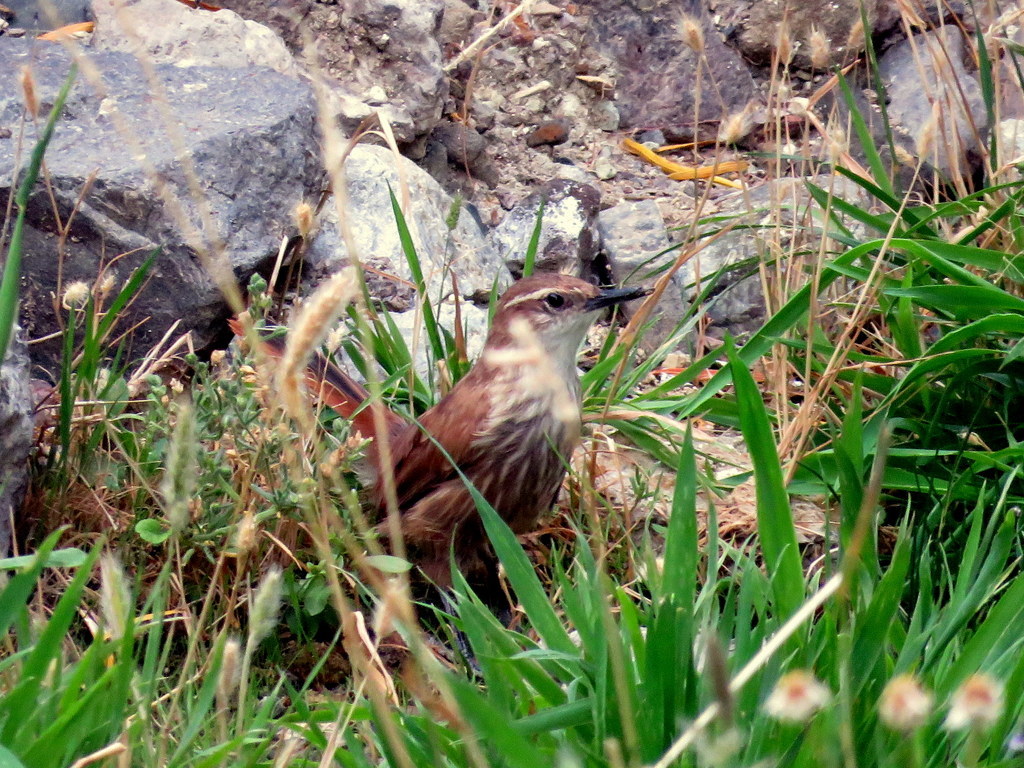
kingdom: Animalia
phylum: Chordata
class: Aves
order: Passeriformes
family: Furnariidae
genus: Upucerthia
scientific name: Upucerthia ruficaudus
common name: Straight-billed earthcreeper
